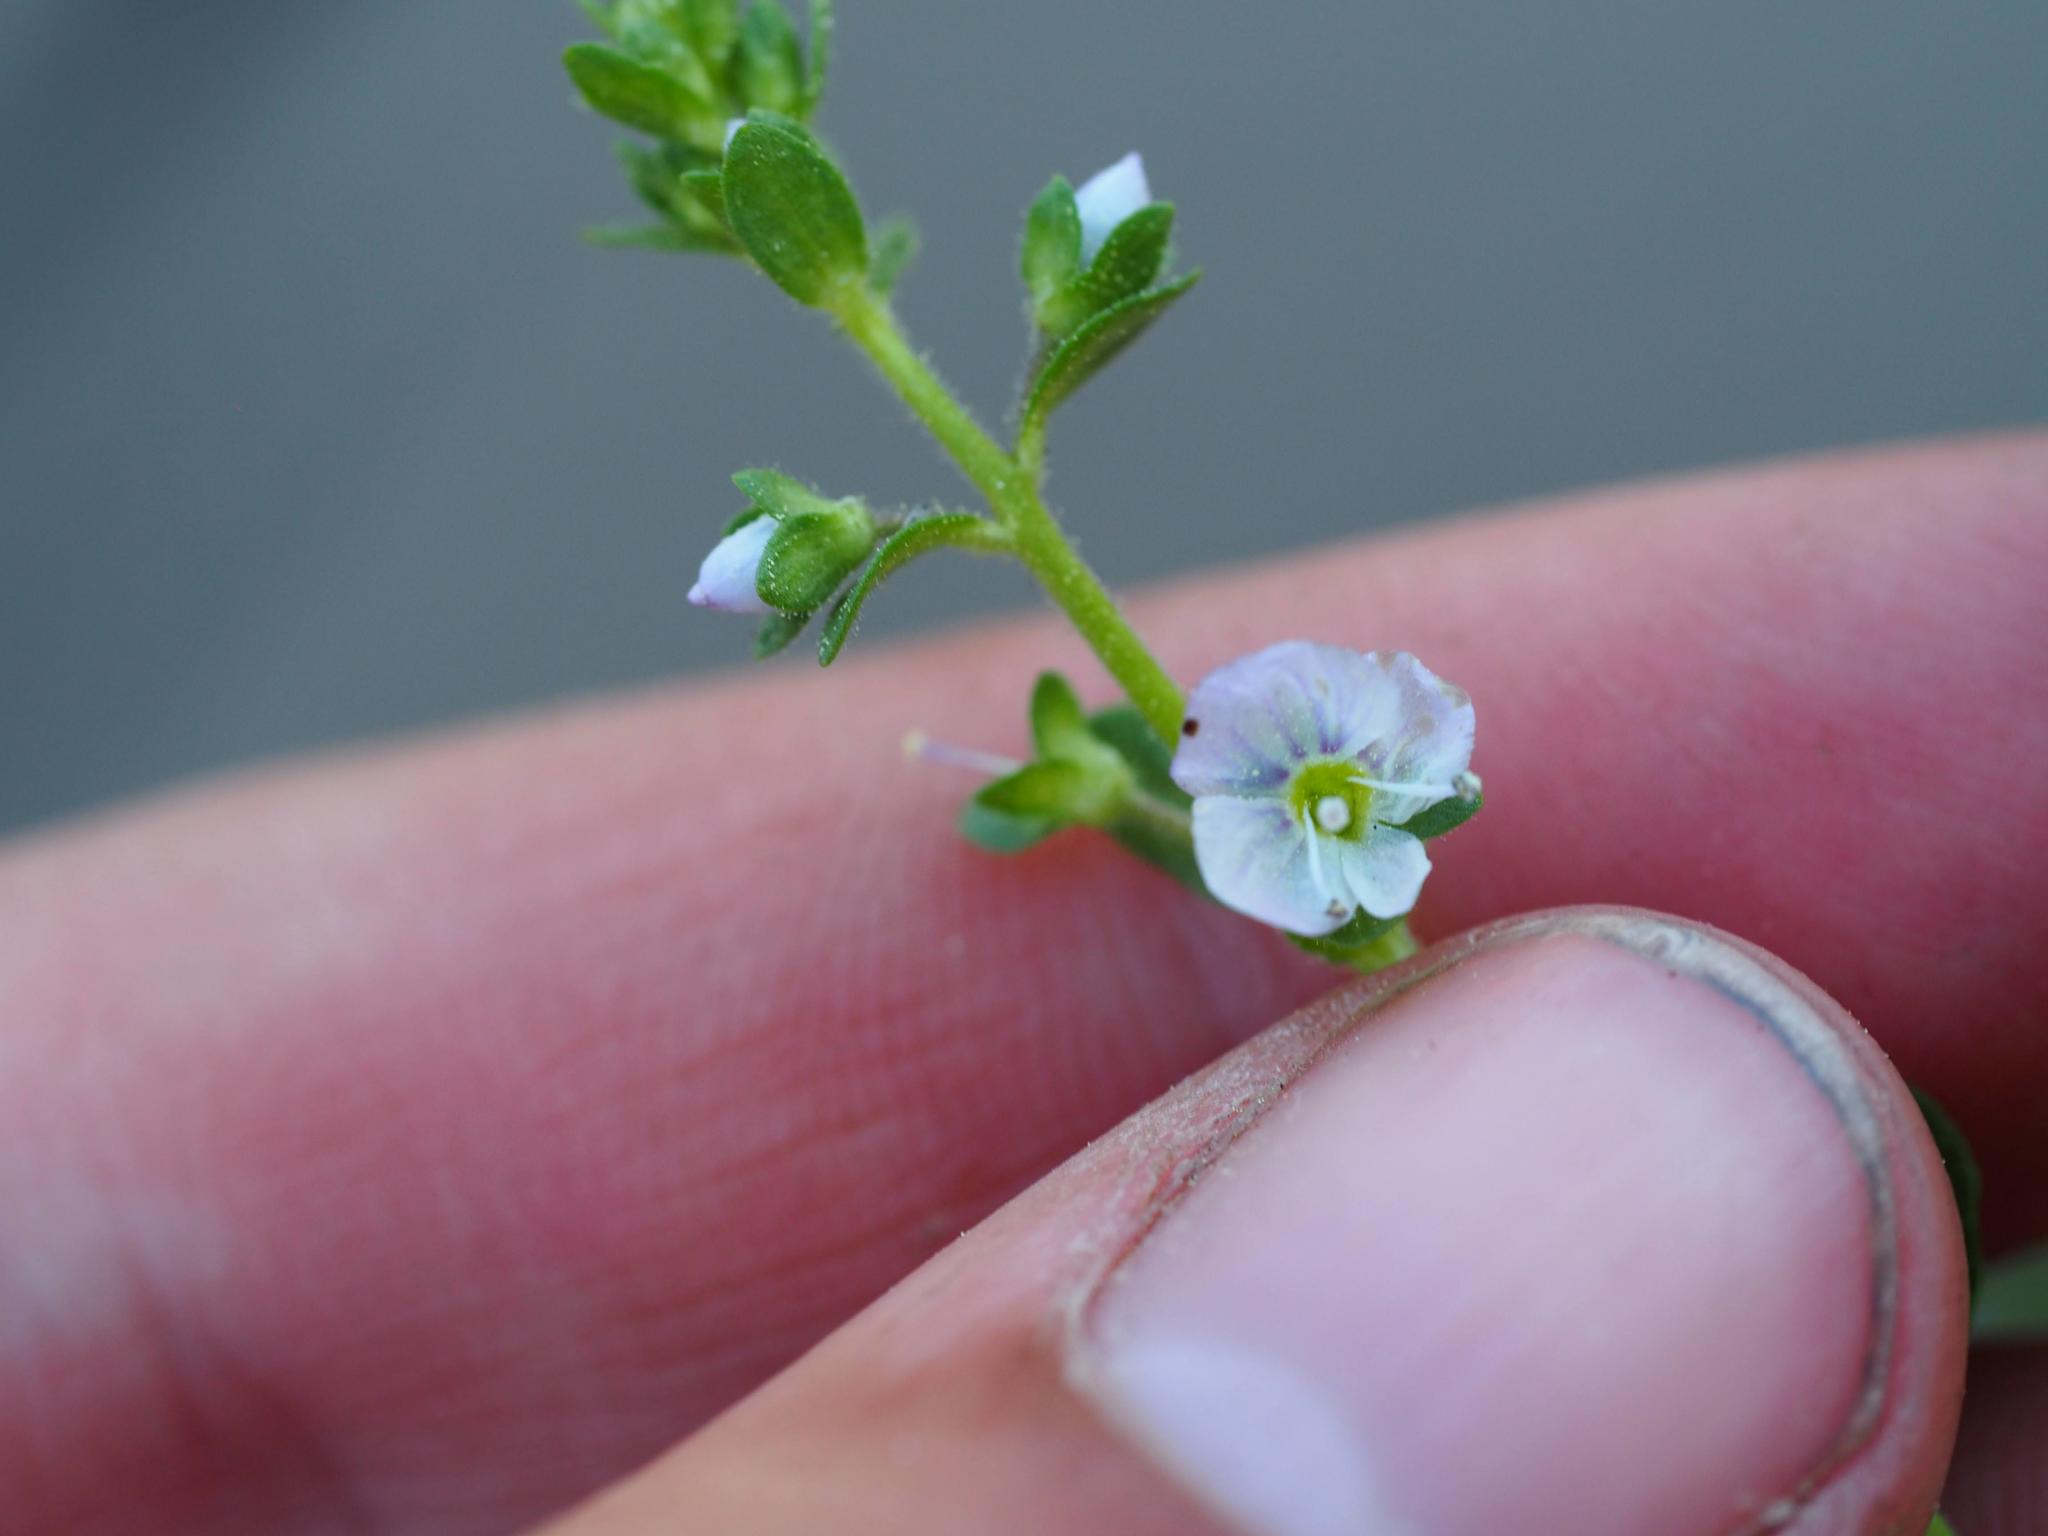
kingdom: Plantae
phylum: Tracheophyta
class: Magnoliopsida
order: Lamiales
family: Plantaginaceae
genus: Veronica
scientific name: Veronica serpyllifolia
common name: Thyme-leaved speedwell
